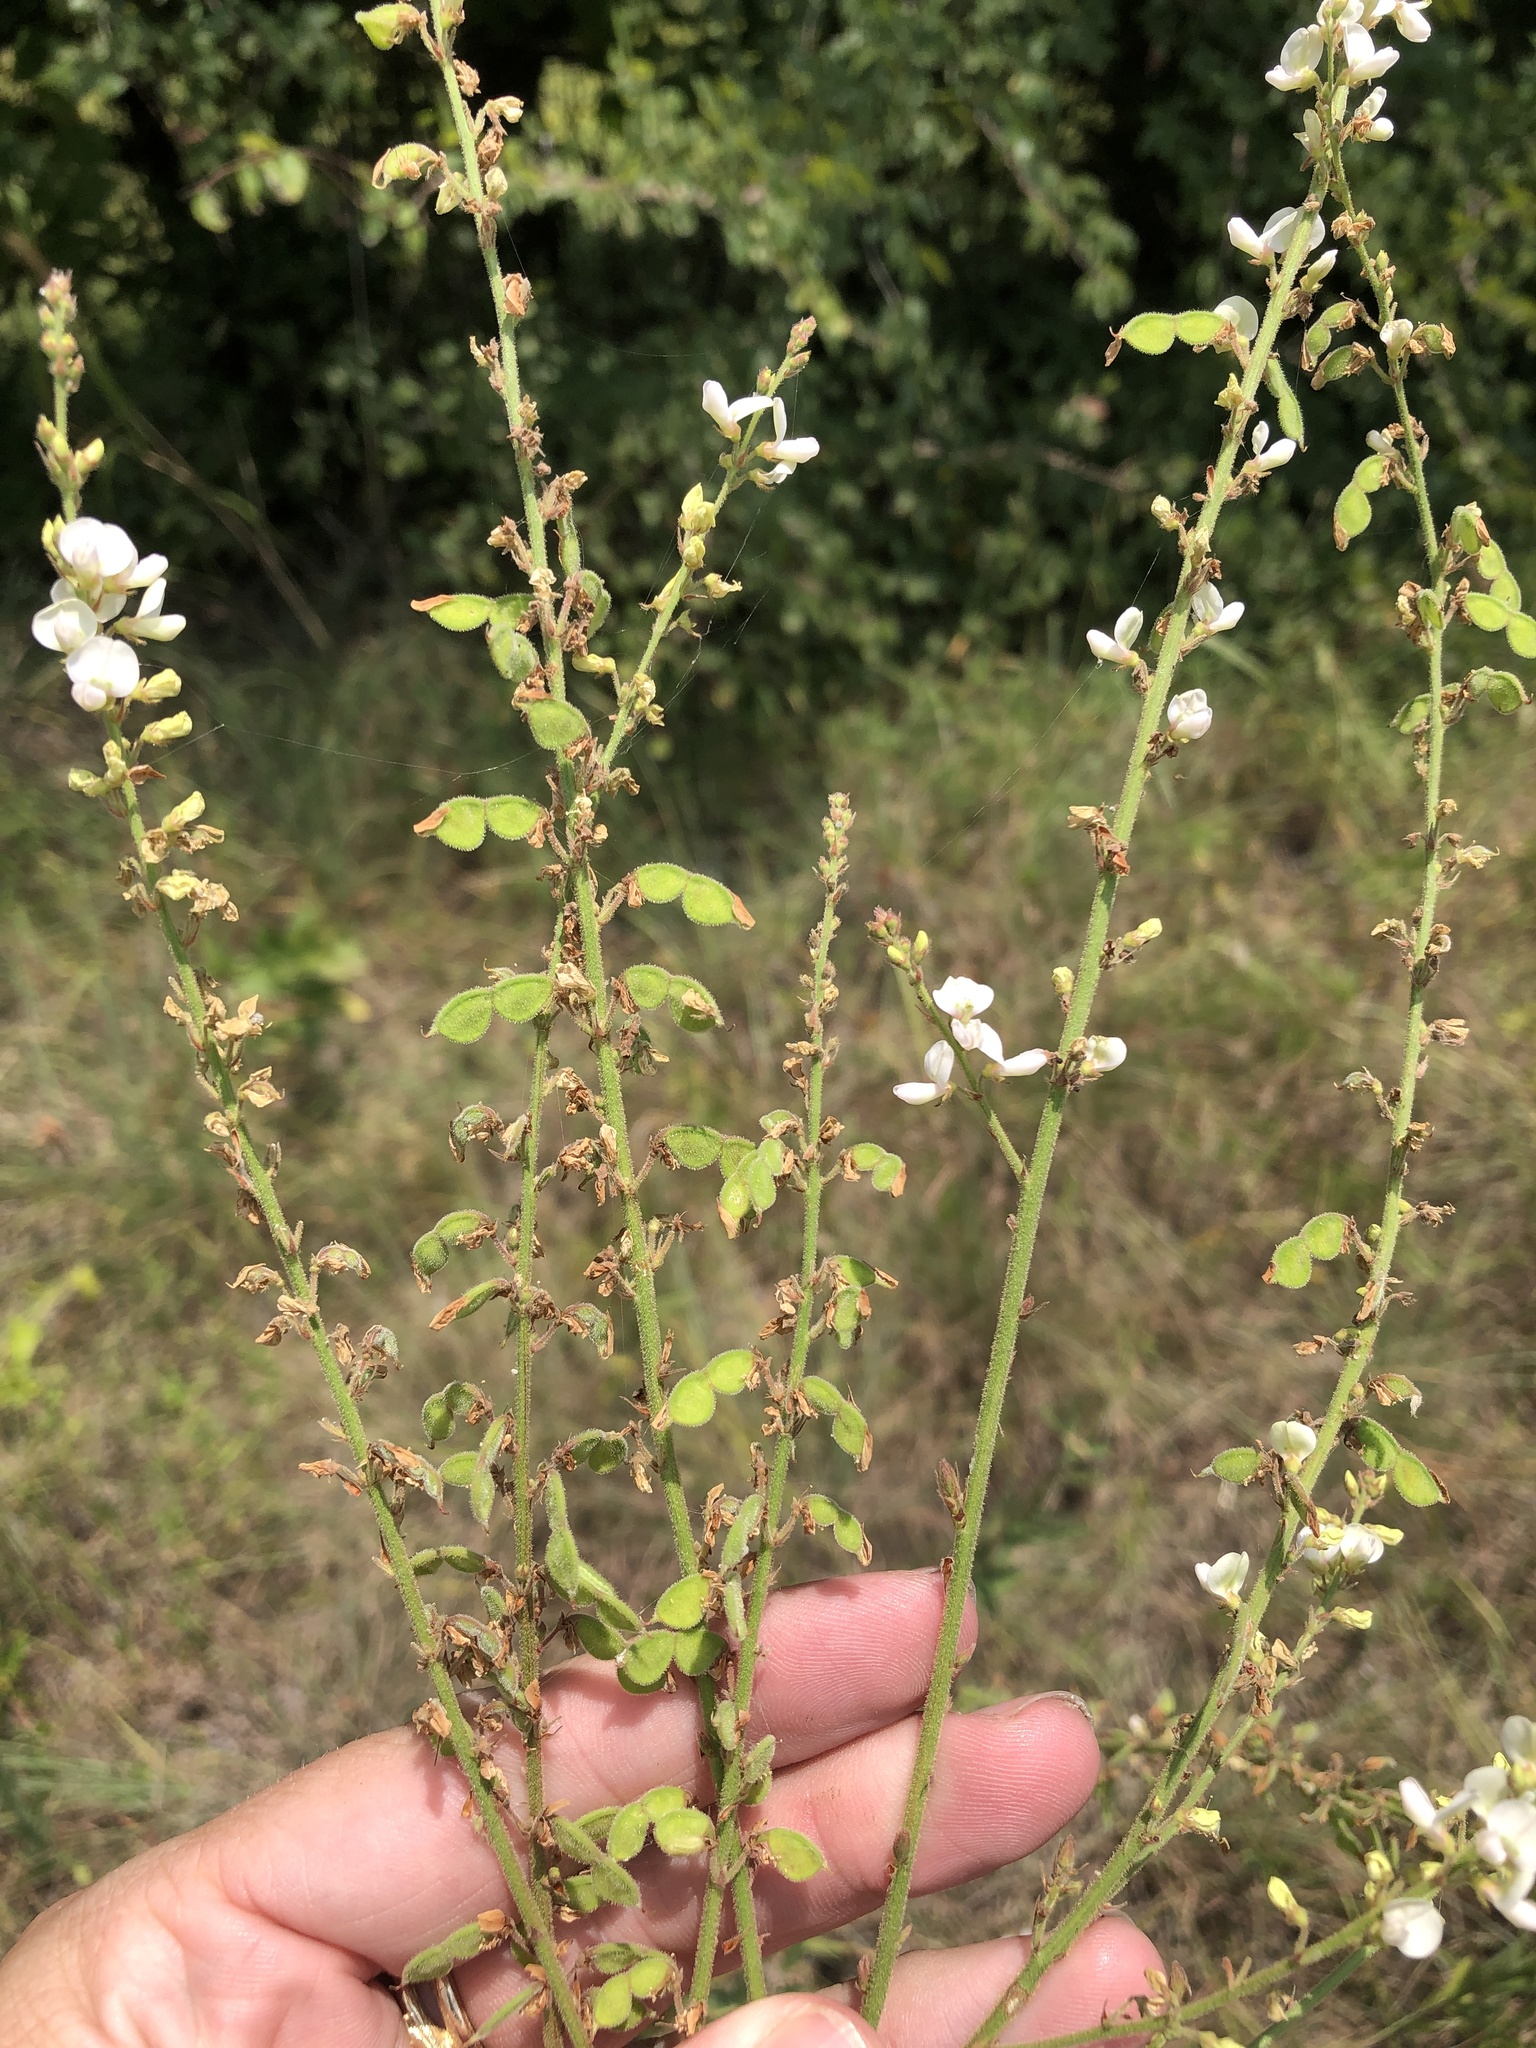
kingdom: Plantae
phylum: Tracheophyta
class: Magnoliopsida
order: Fabales
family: Fabaceae
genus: Desmodium
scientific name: Desmodium sessilifolium
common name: Sessile tick-clover
